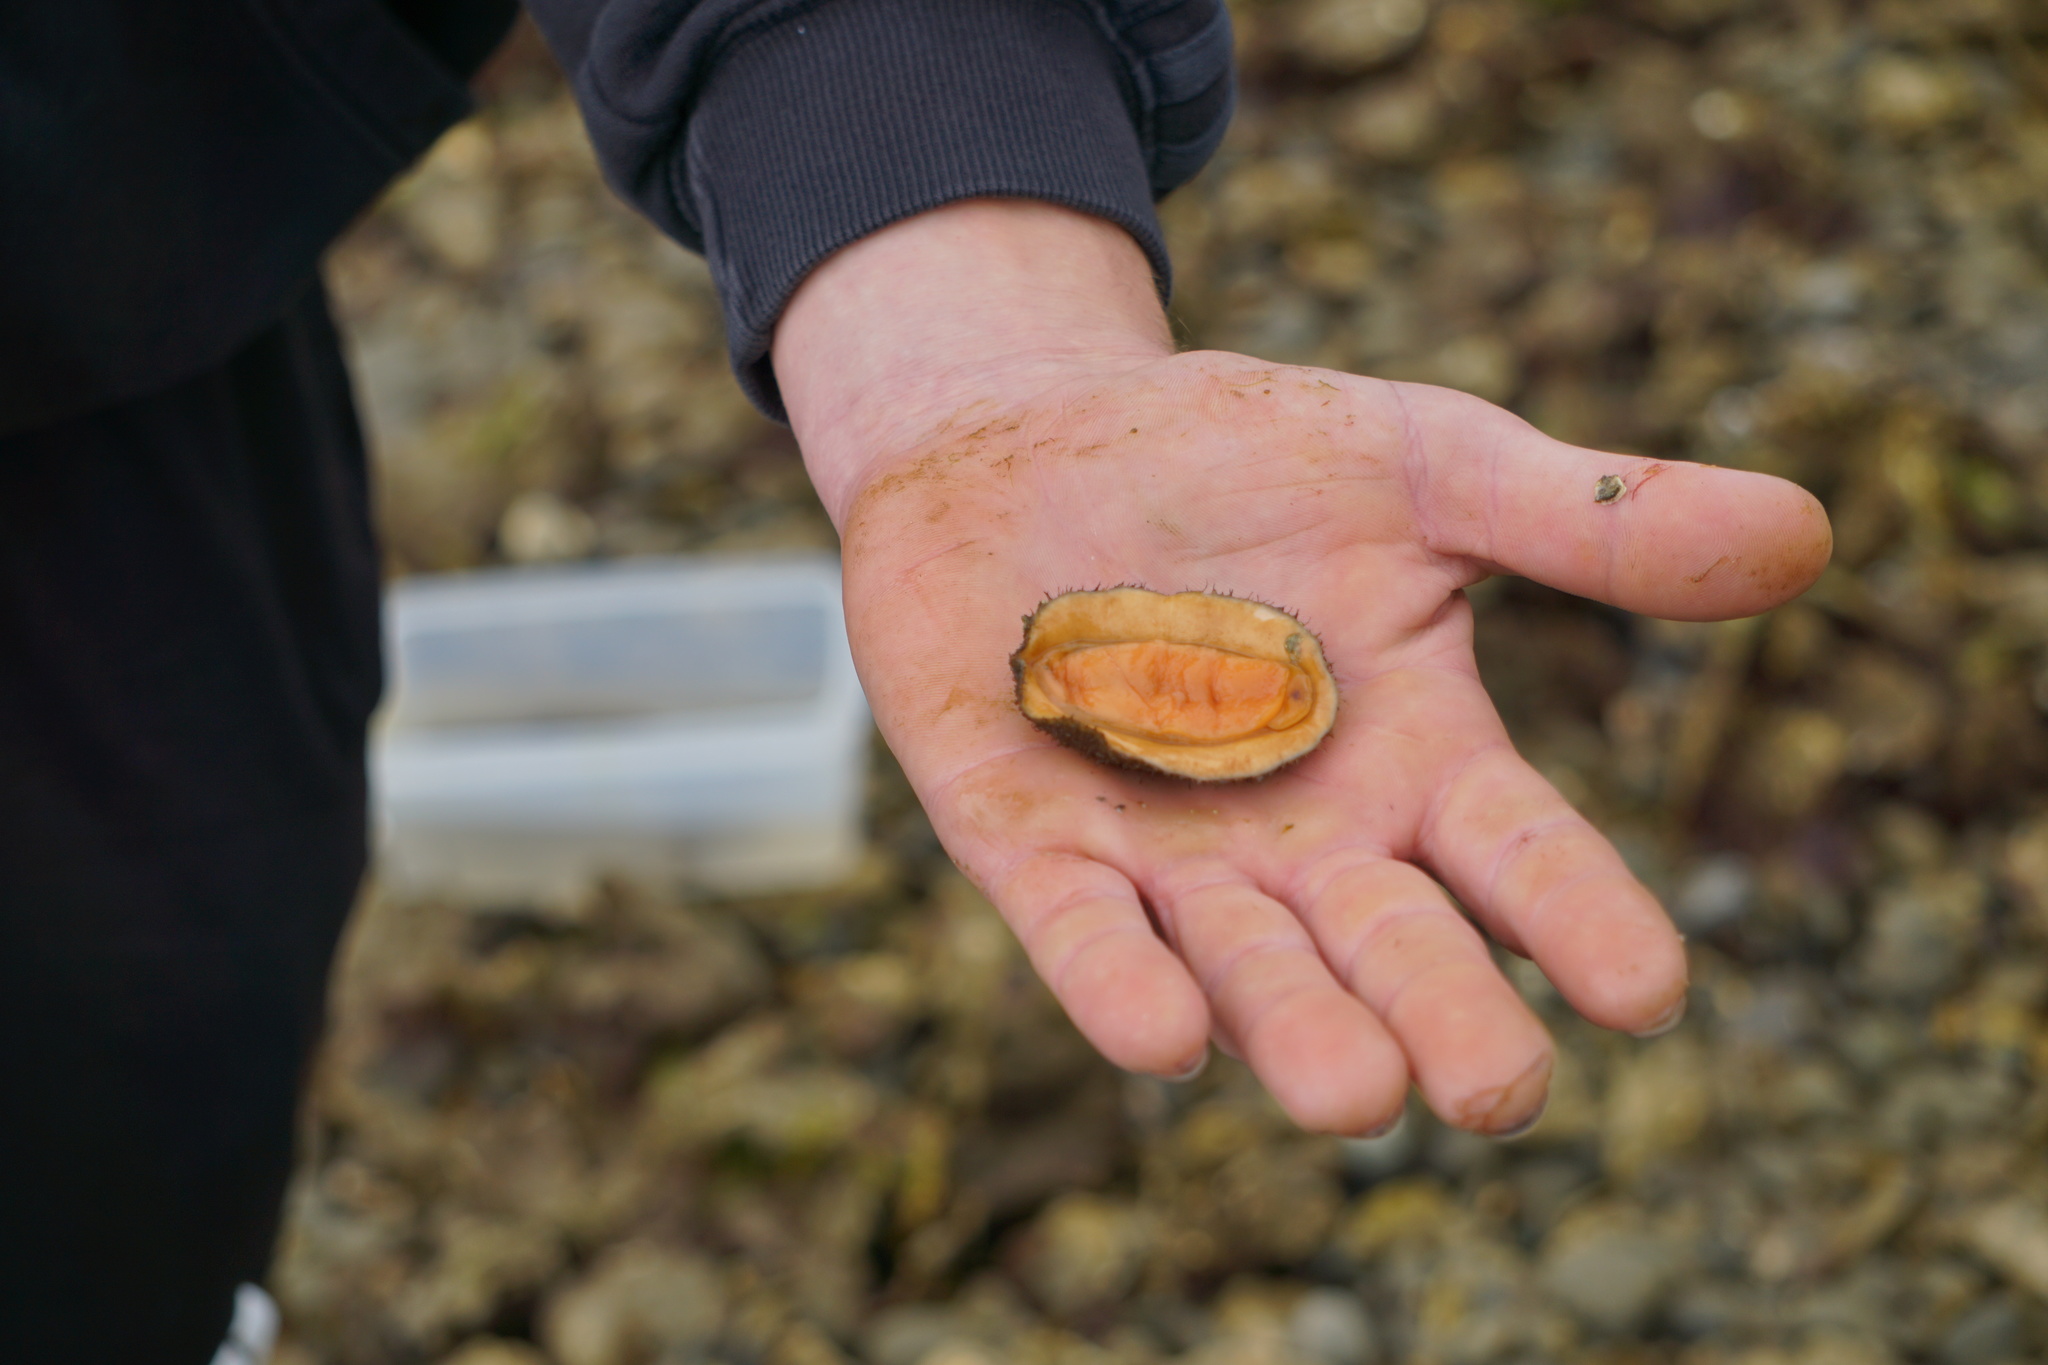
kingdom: Animalia
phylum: Mollusca
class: Polyplacophora
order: Chitonida
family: Mopaliidae
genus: Mopalia
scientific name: Mopalia ciliata
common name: Hairy chiton
